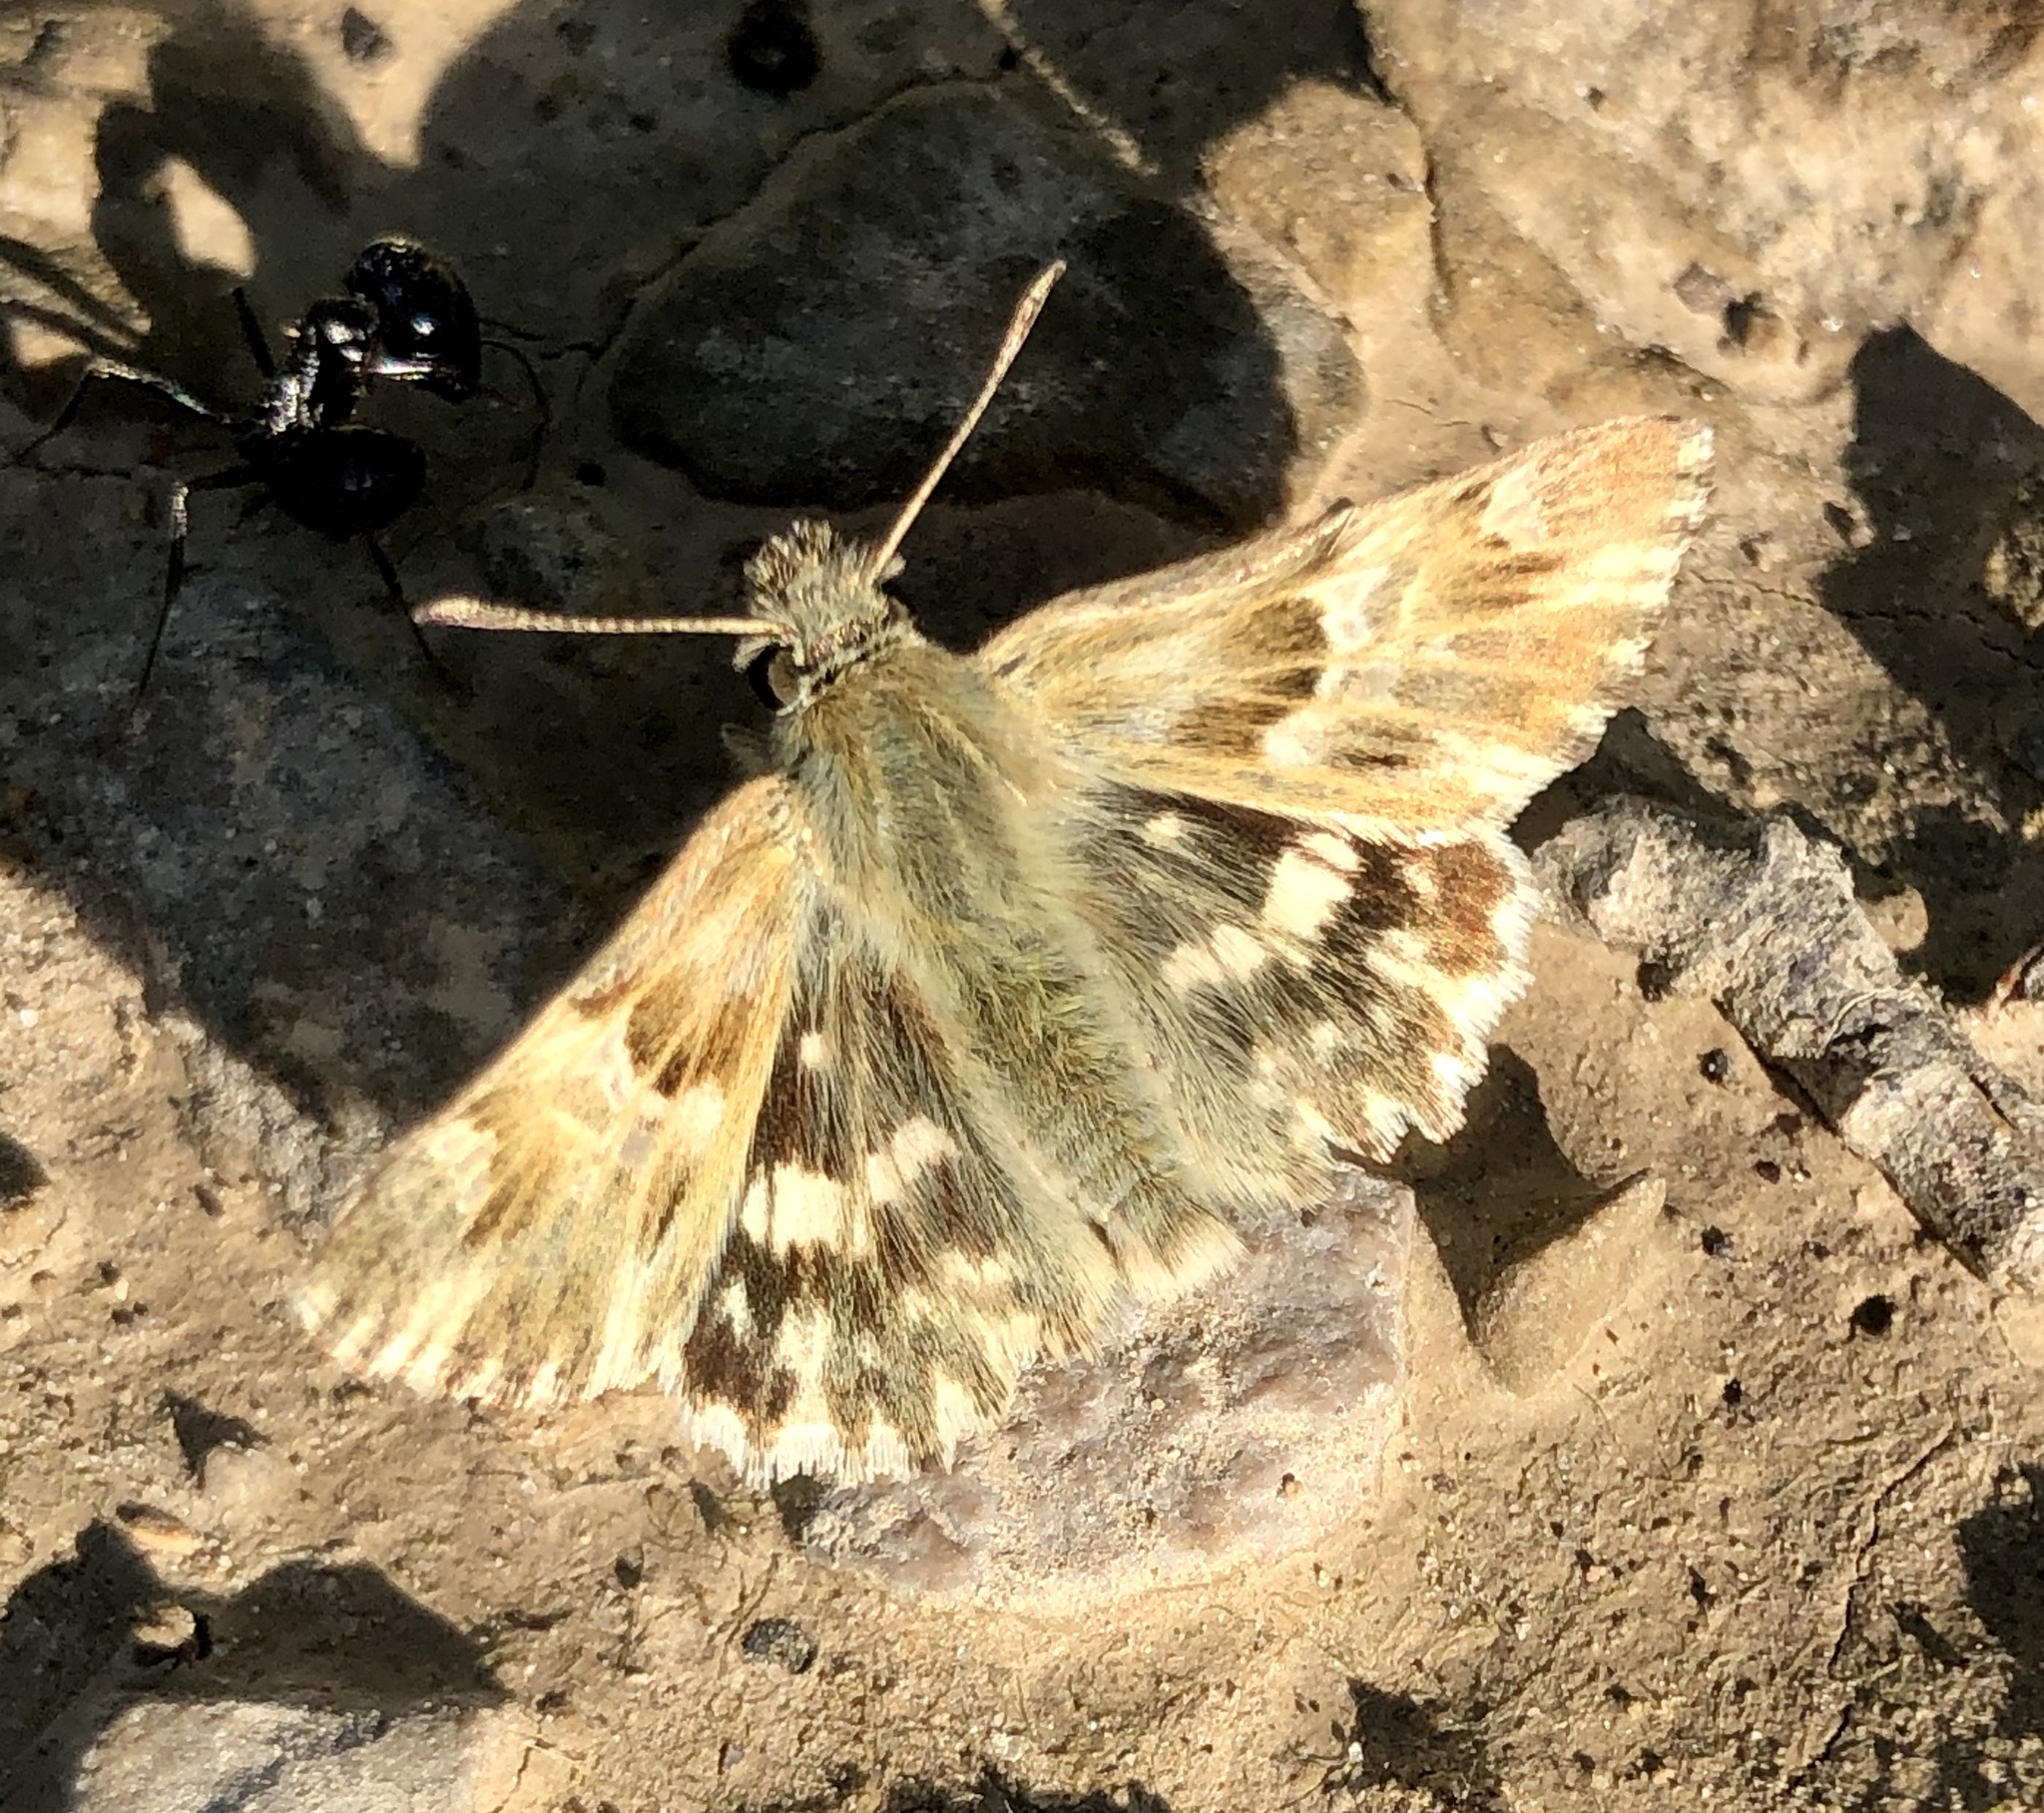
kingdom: Animalia
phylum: Arthropoda
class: Insecta
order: Lepidoptera
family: Hesperiidae
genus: Carcharodus
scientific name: Carcharodus lavatherae
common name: Marbled skipper
